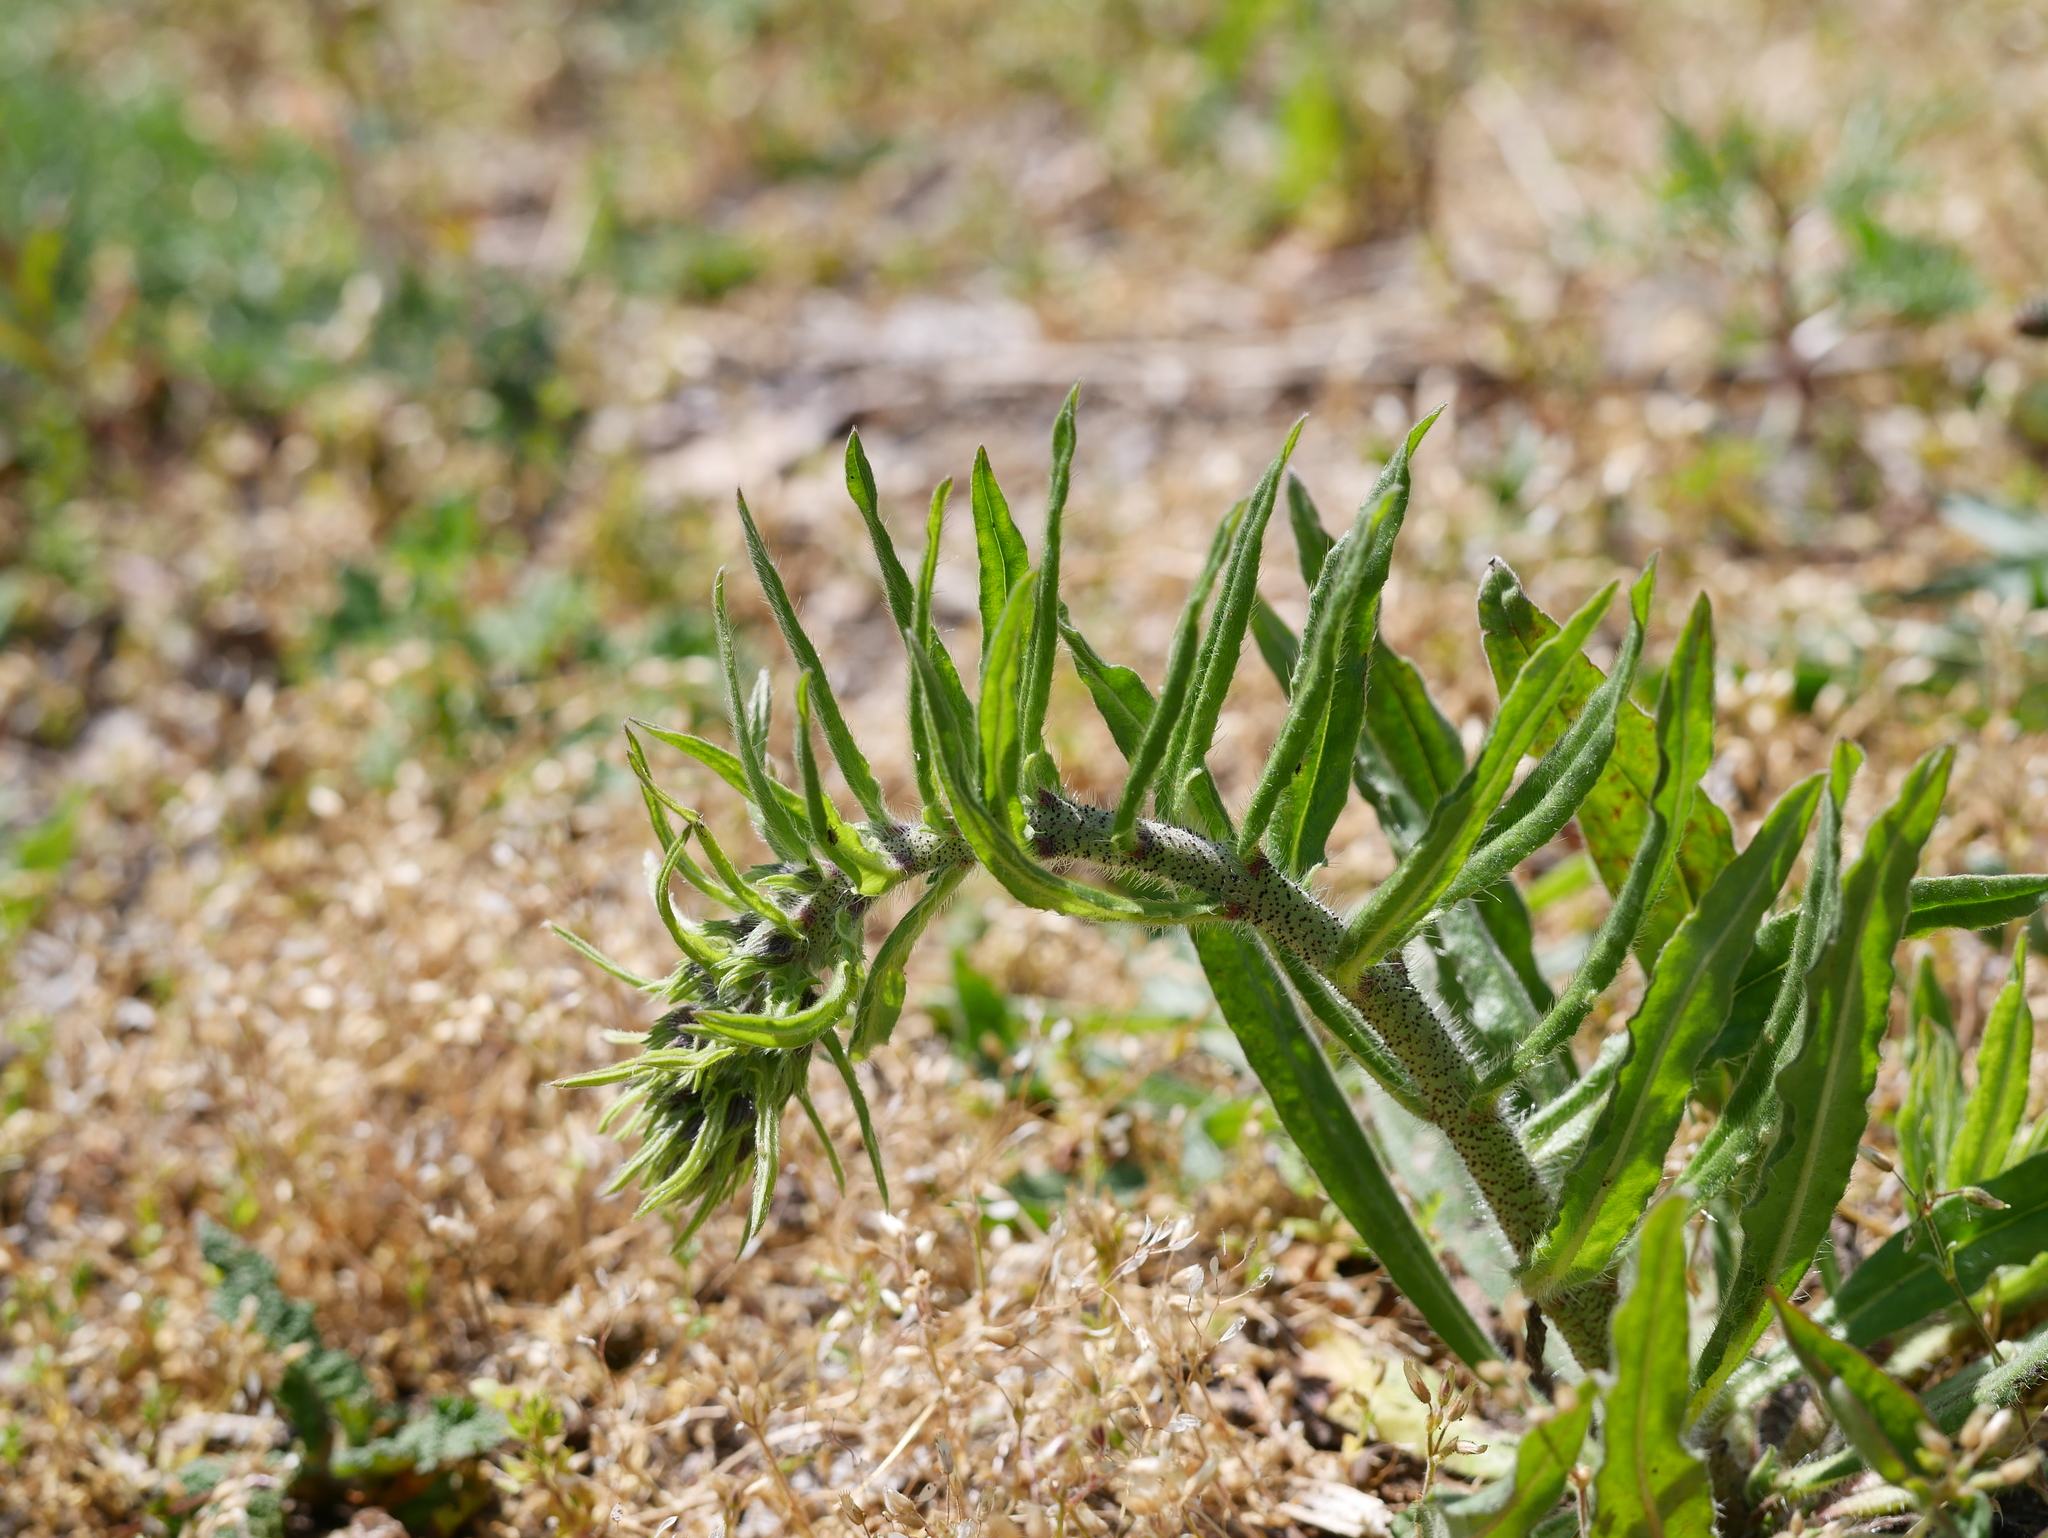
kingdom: Plantae
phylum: Tracheophyta
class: Magnoliopsida
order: Boraginales
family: Boraginaceae
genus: Echium
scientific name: Echium vulgare
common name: Common viper's bugloss
